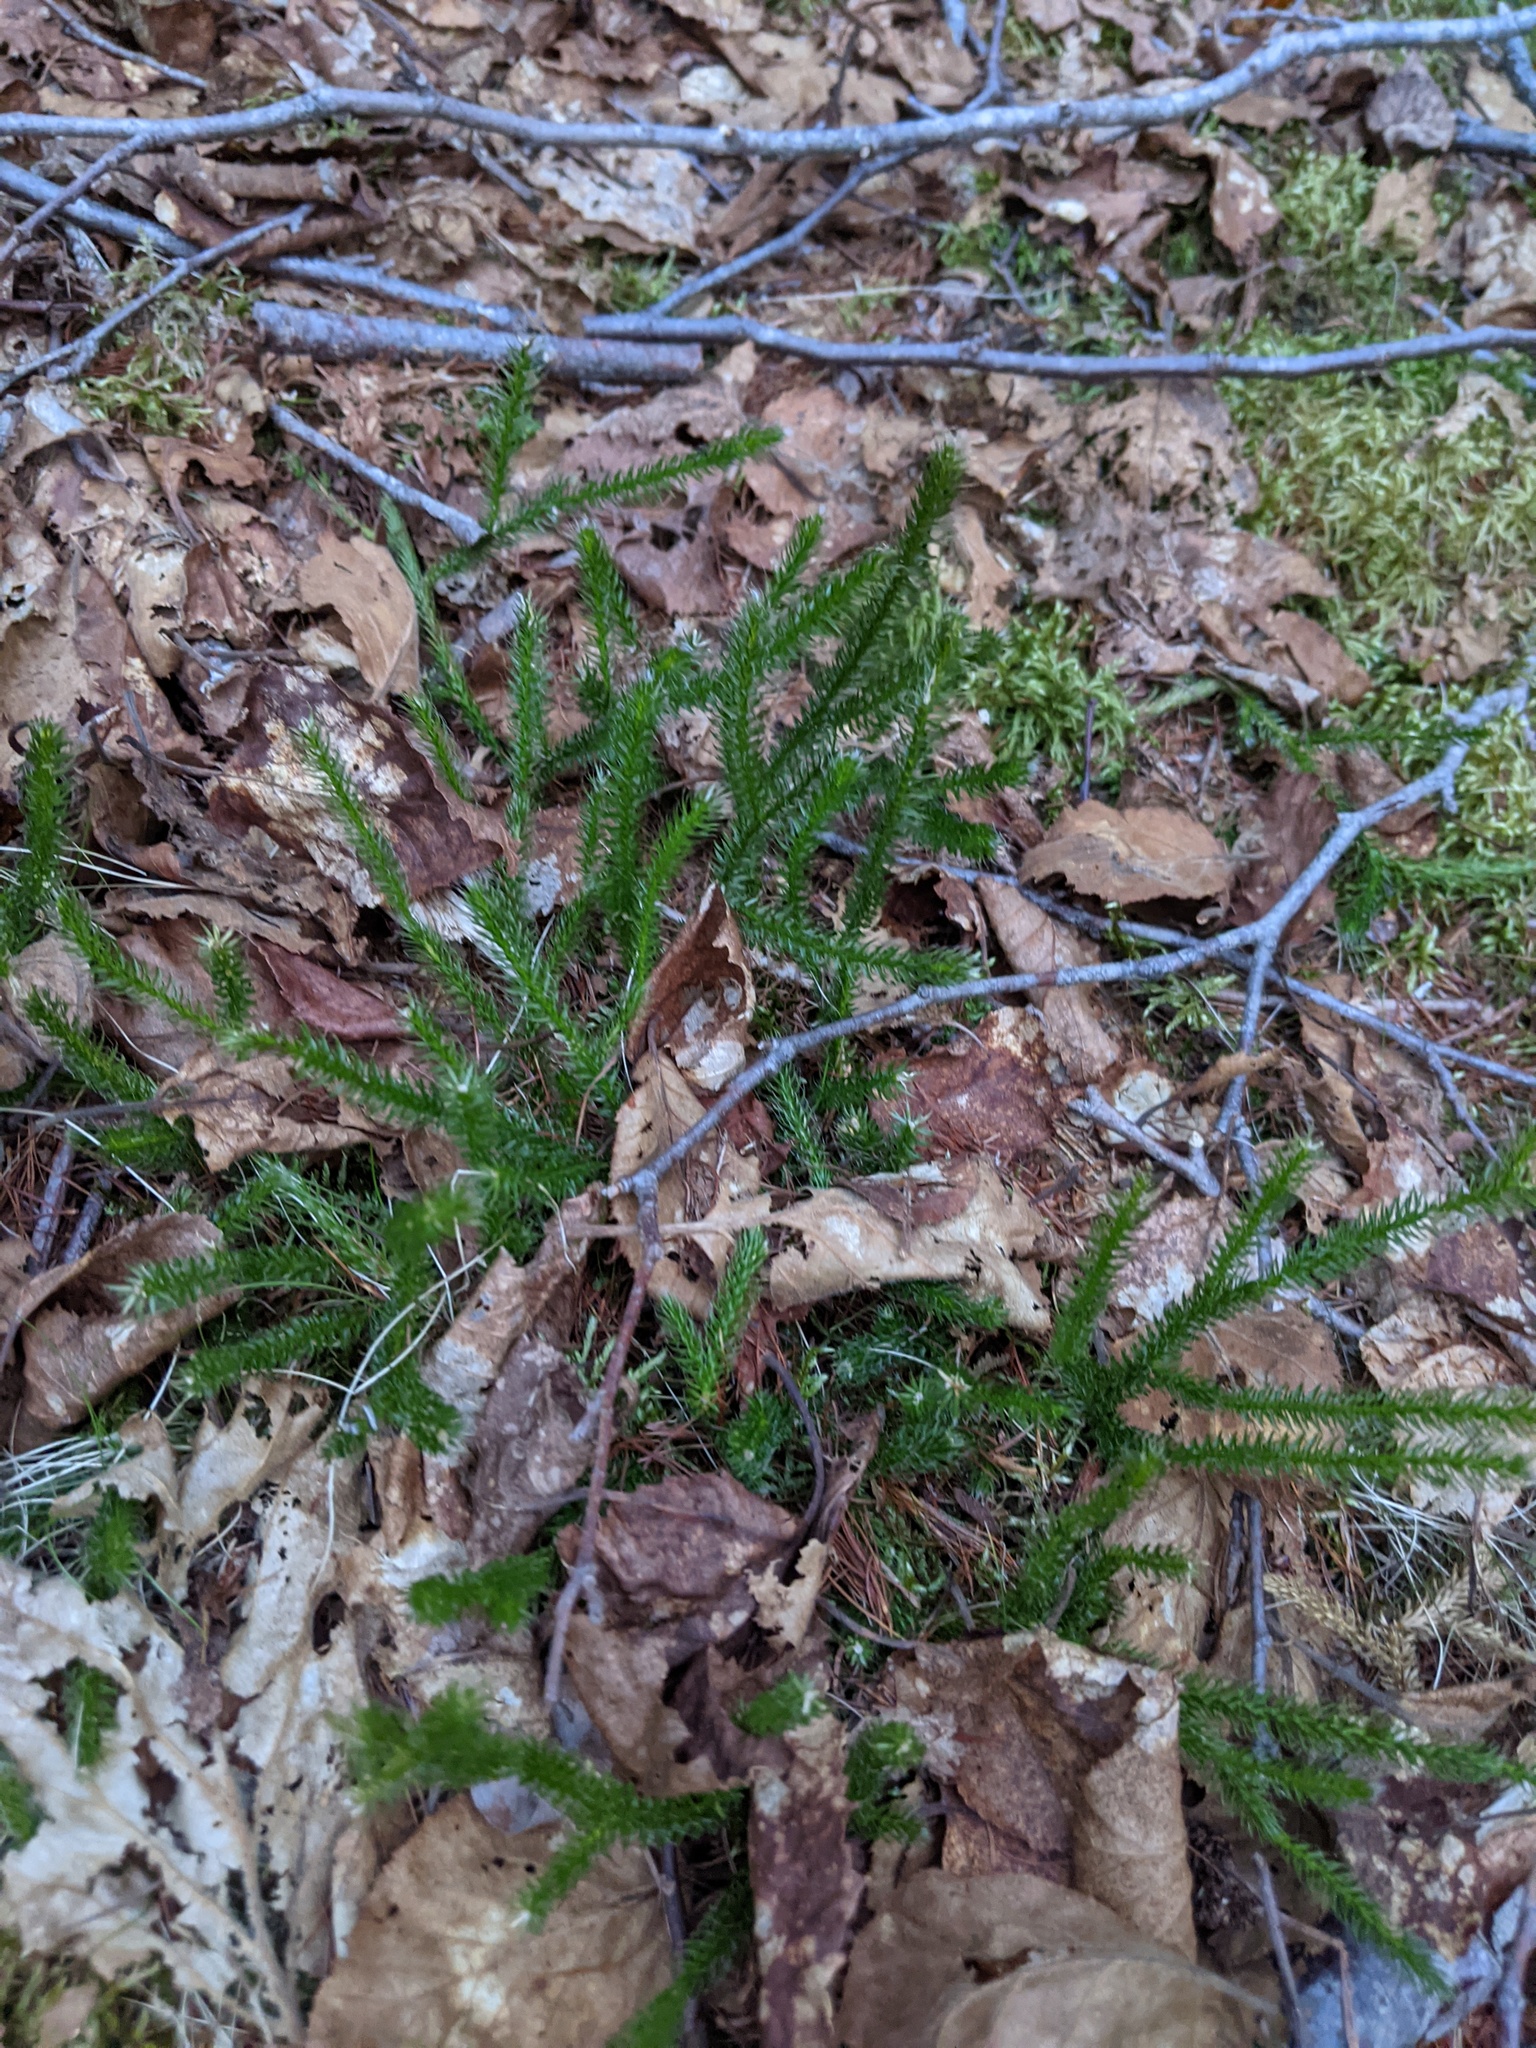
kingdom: Plantae
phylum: Tracheophyta
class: Lycopodiopsida
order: Lycopodiales
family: Lycopodiaceae
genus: Lycopodium
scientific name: Lycopodium lagopus
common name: One-cone clubmoss
